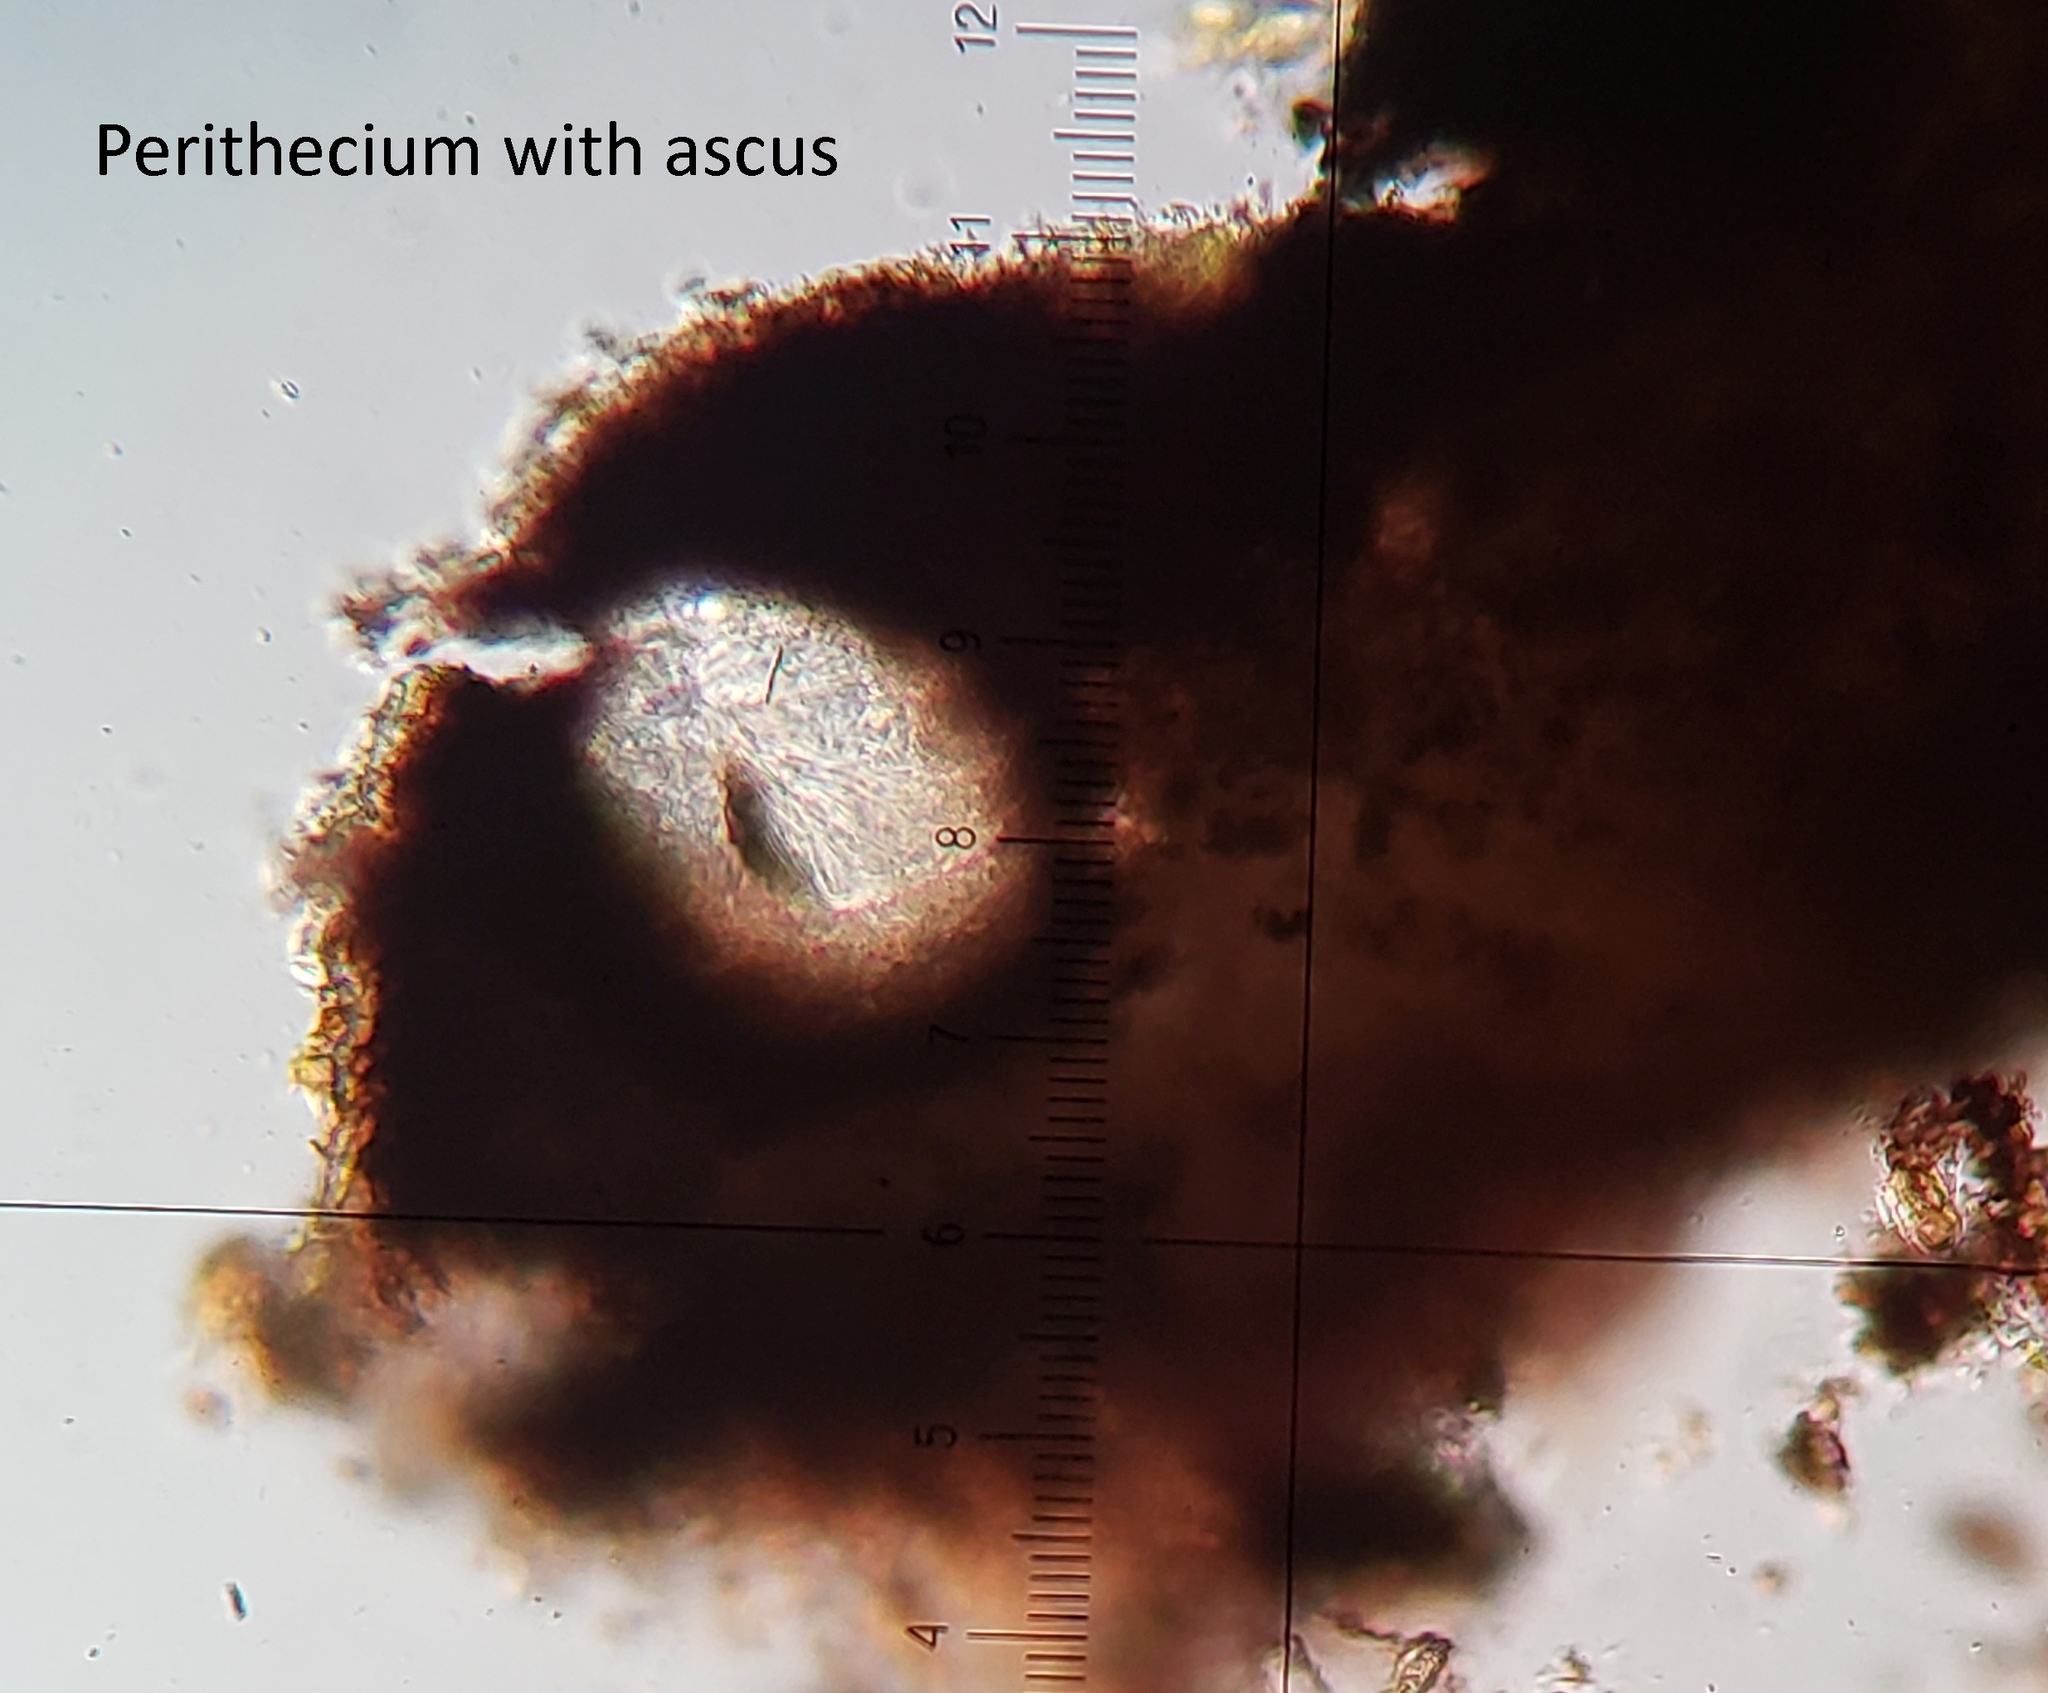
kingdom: Fungi
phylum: Ascomycota
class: Dothideomycetes
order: Dothideales
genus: Homostegia
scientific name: Homostegia piggotii
